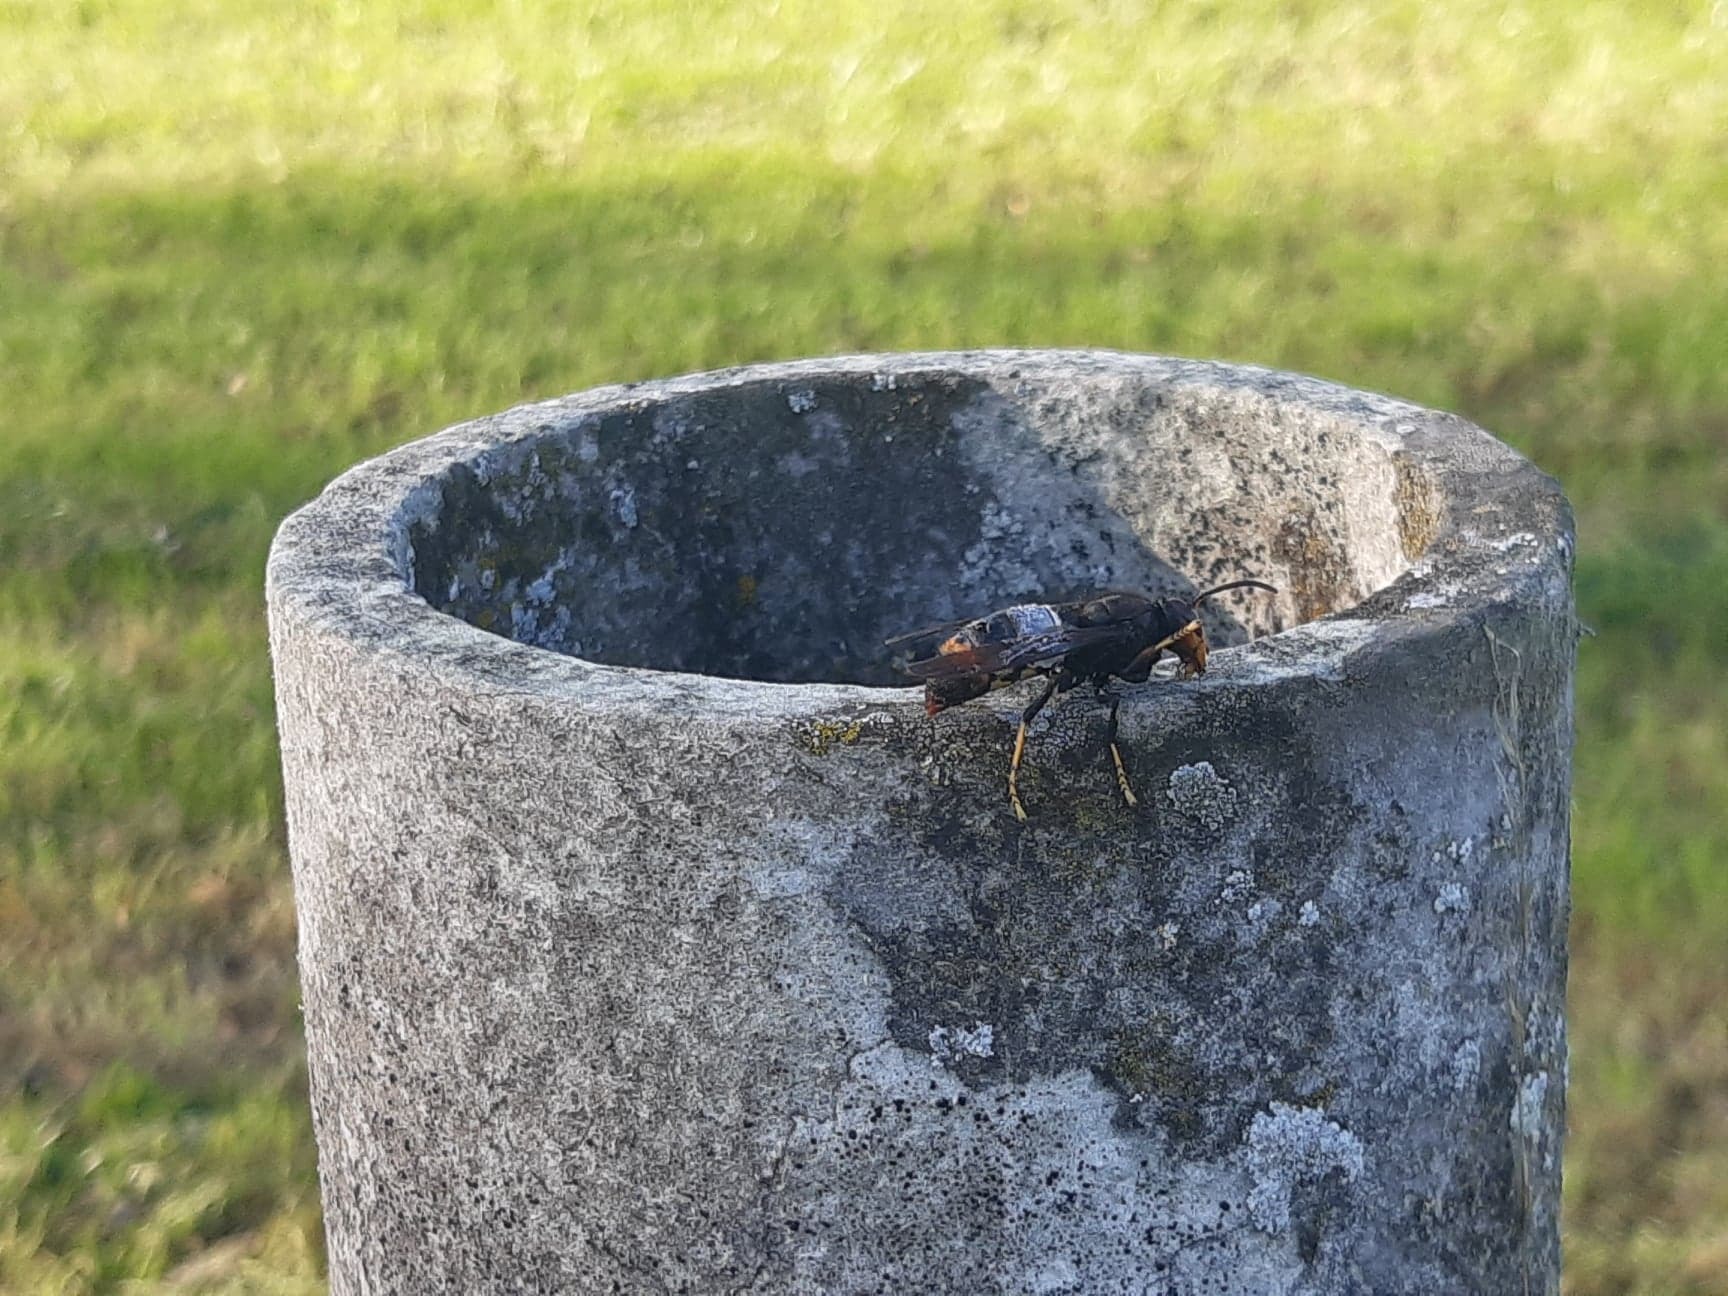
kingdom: Animalia
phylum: Arthropoda
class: Insecta
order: Hymenoptera
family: Vespidae
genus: Vespa
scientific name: Vespa velutina
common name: Asian hornet
